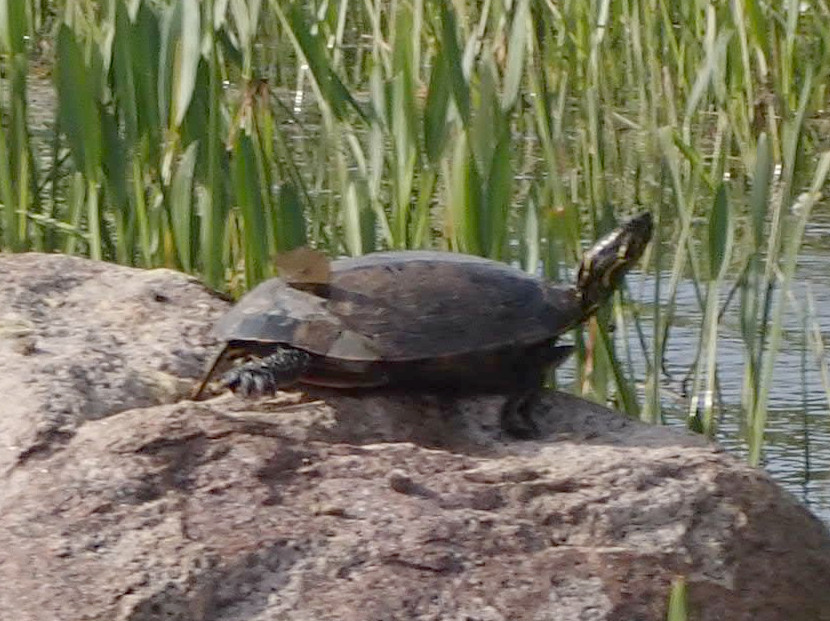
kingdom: Animalia
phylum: Chordata
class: Testudines
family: Emydidae
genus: Chrysemys
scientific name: Chrysemys picta
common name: Painted turtle
